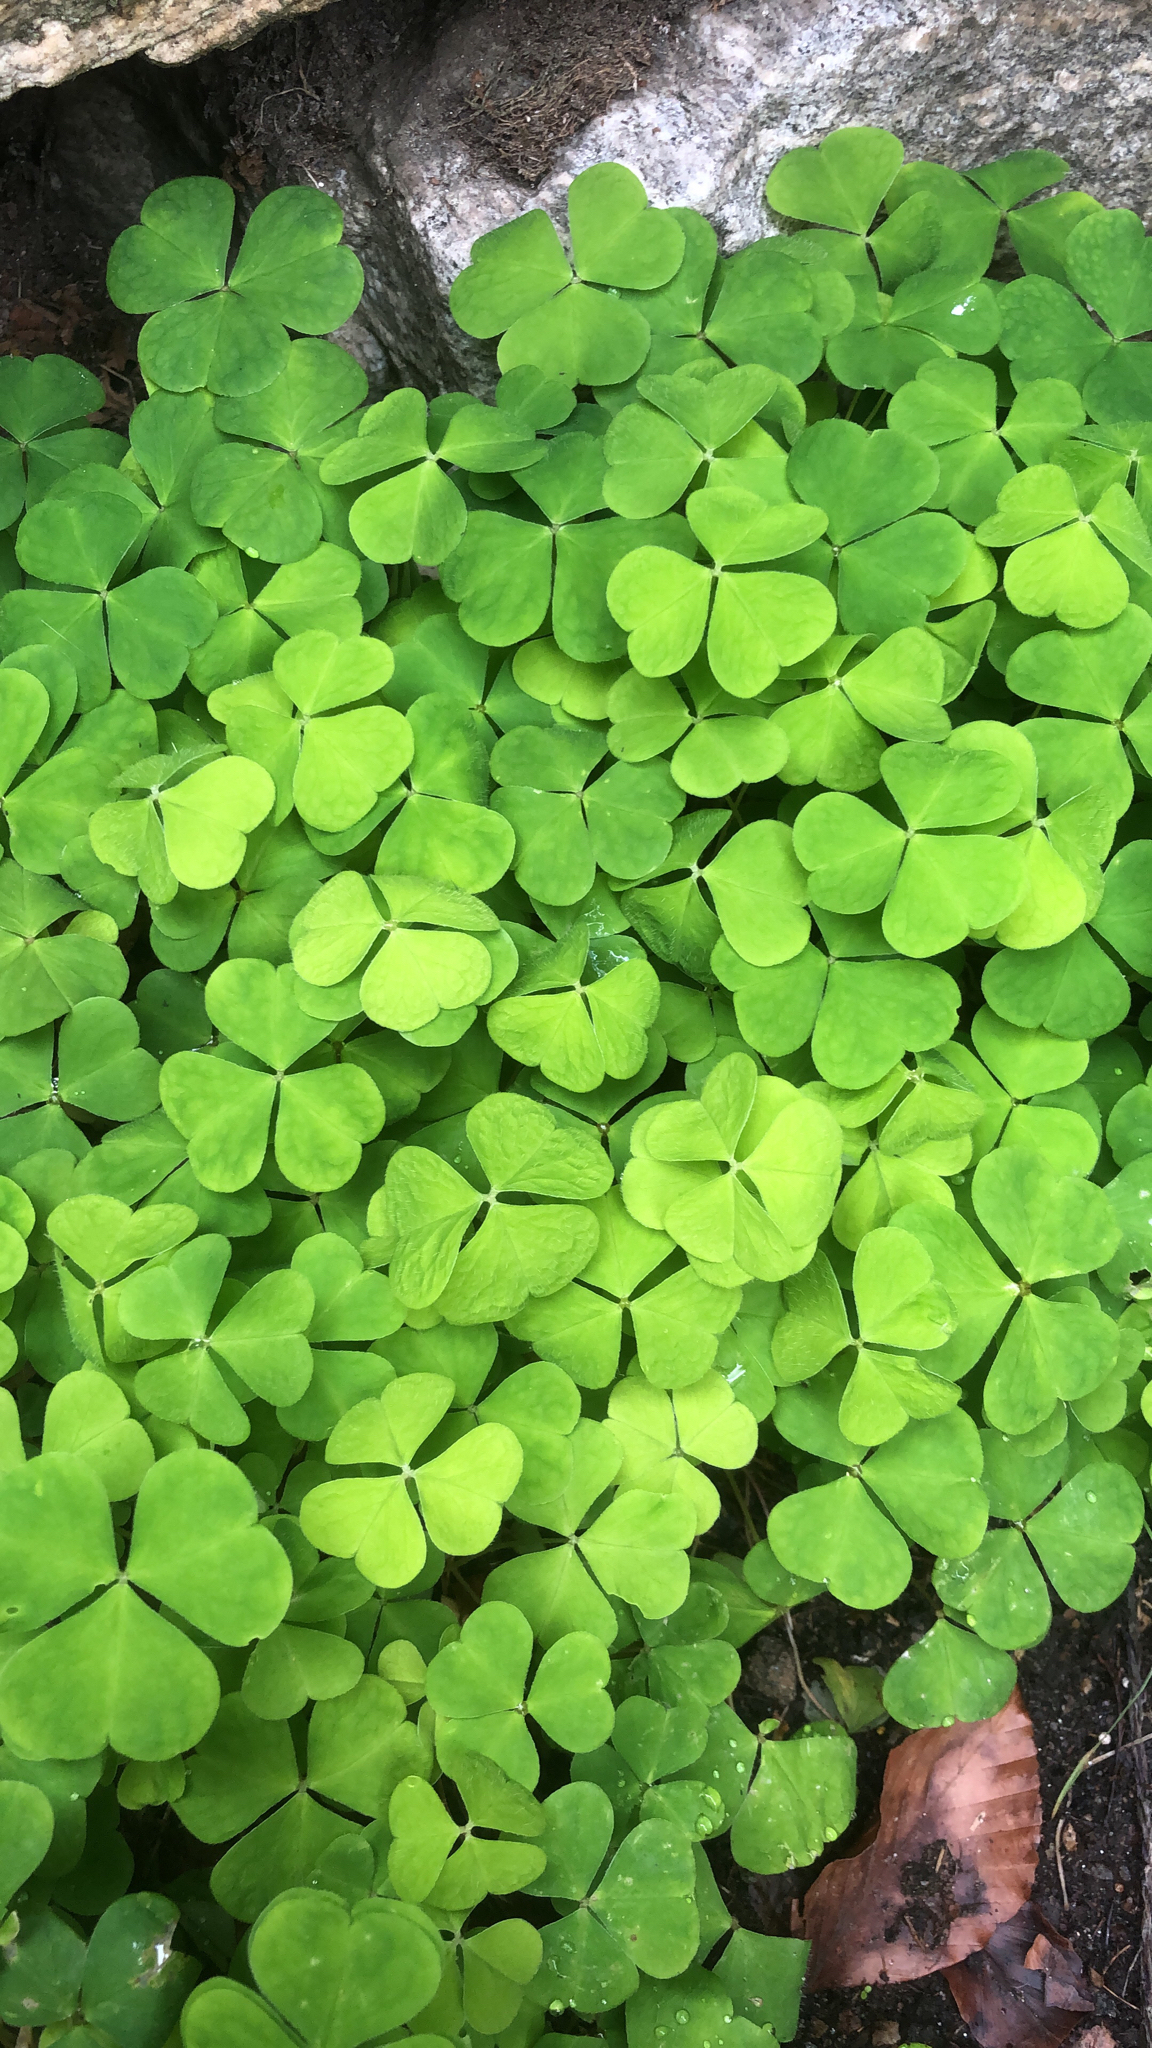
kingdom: Plantae
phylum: Tracheophyta
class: Magnoliopsida
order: Oxalidales
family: Oxalidaceae
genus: Oxalis
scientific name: Oxalis acetosella
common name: Wood-sorrel
